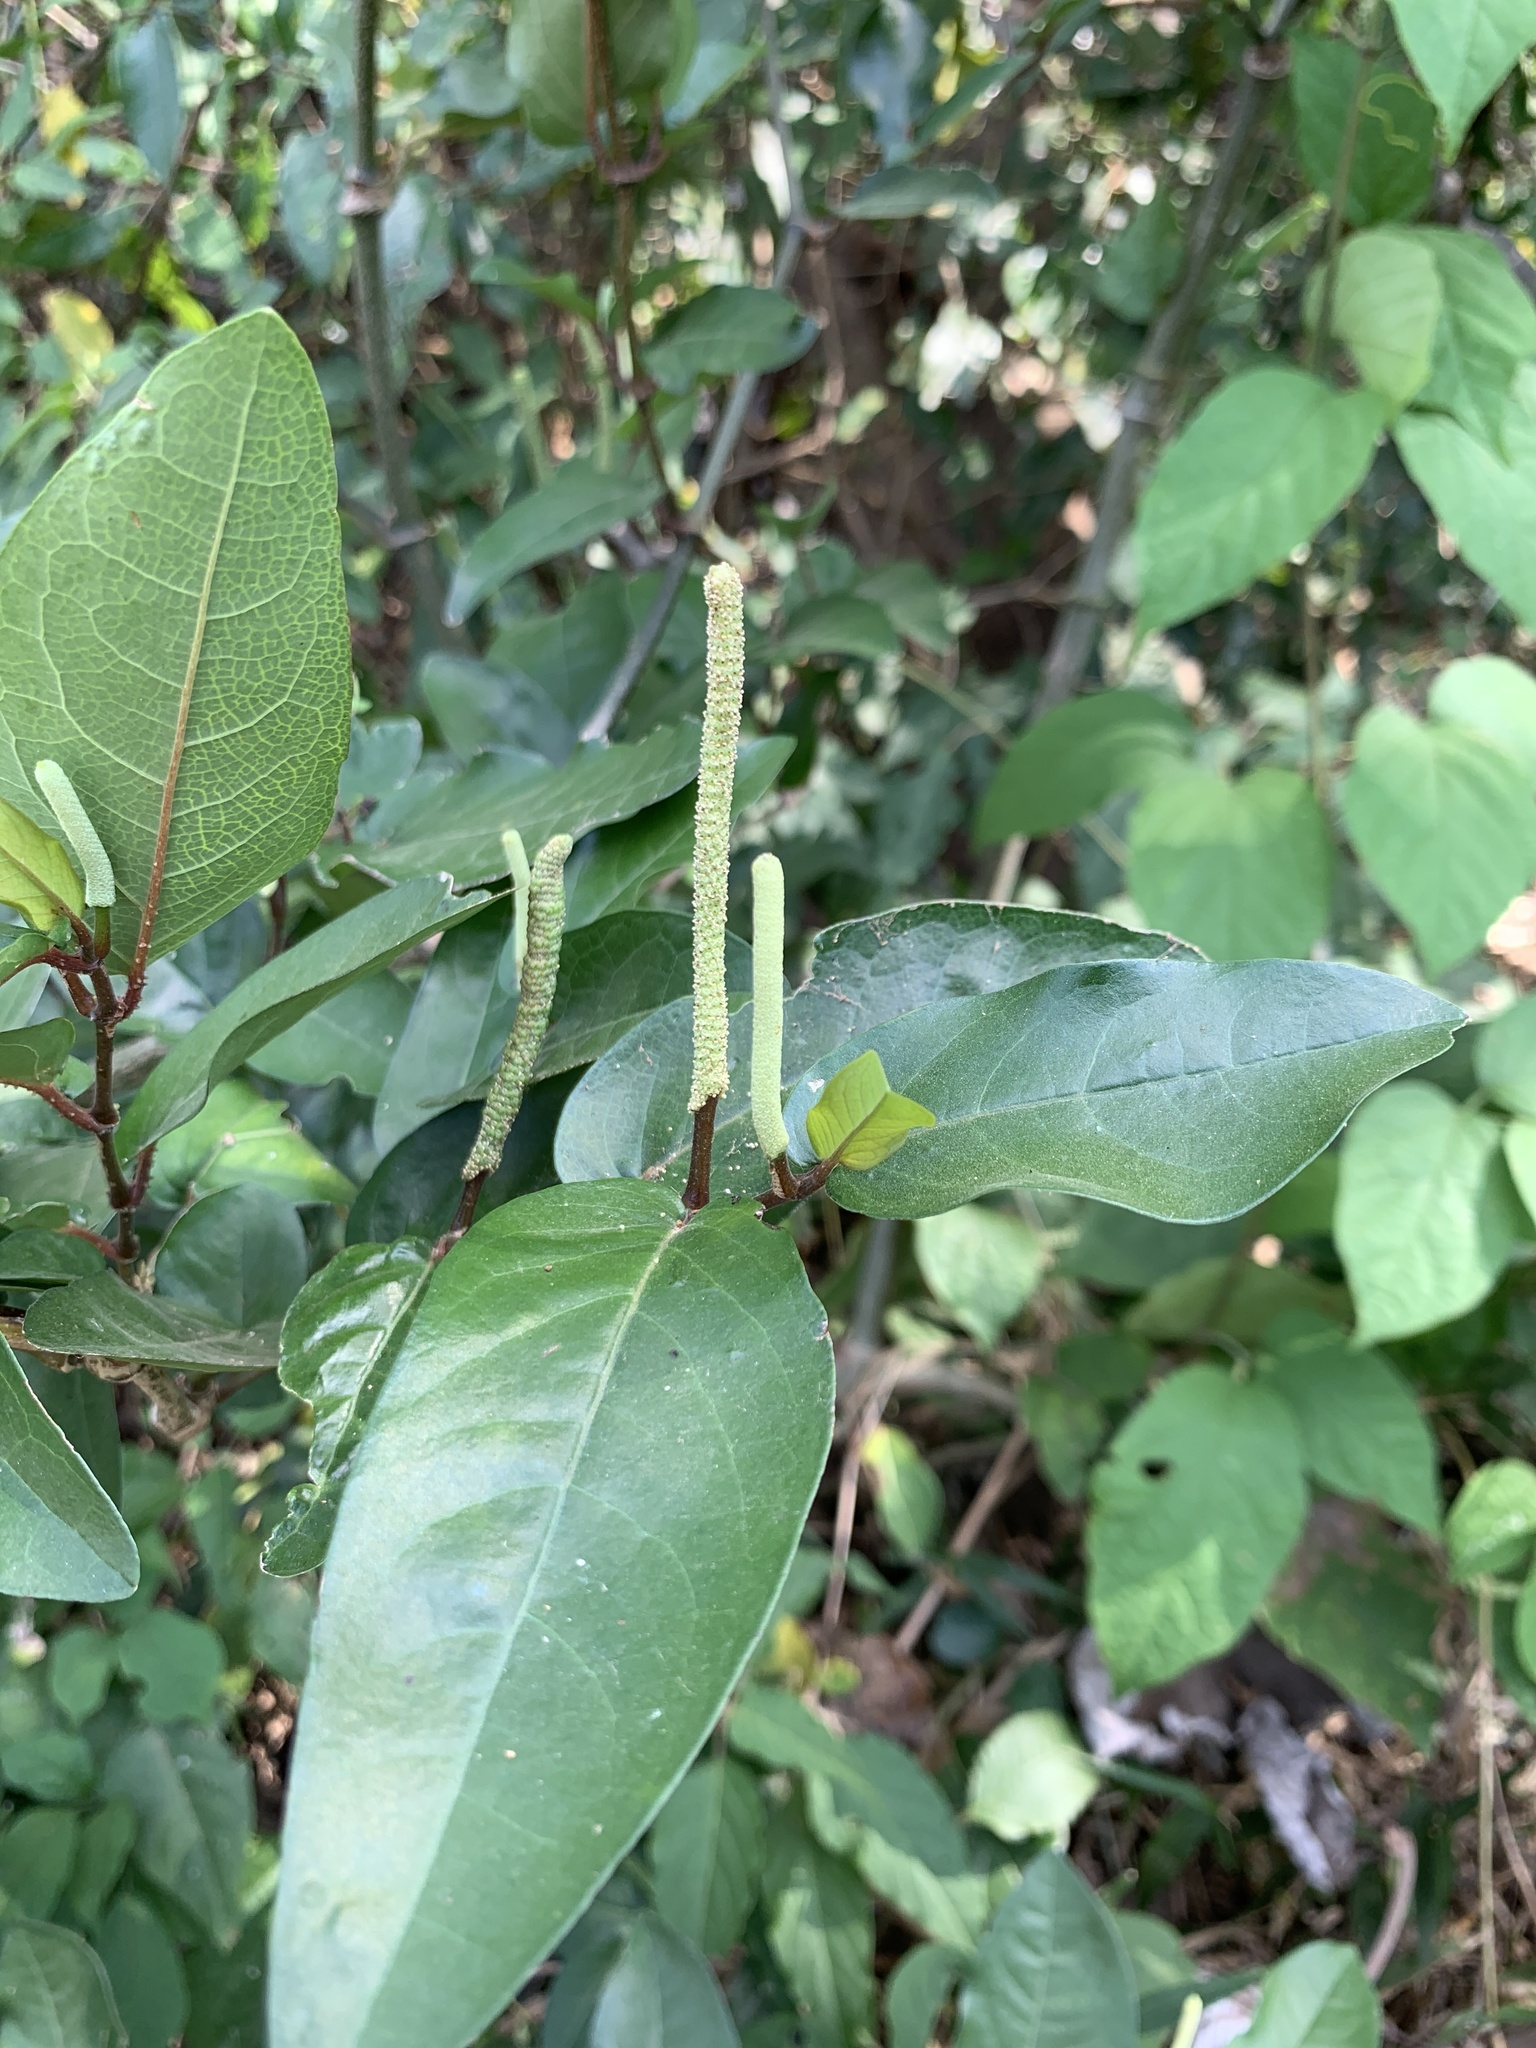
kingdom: Plantae
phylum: Tracheophyta
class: Magnoliopsida
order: Piperales
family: Piperaceae
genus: Piper
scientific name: Piper tuberculatum
